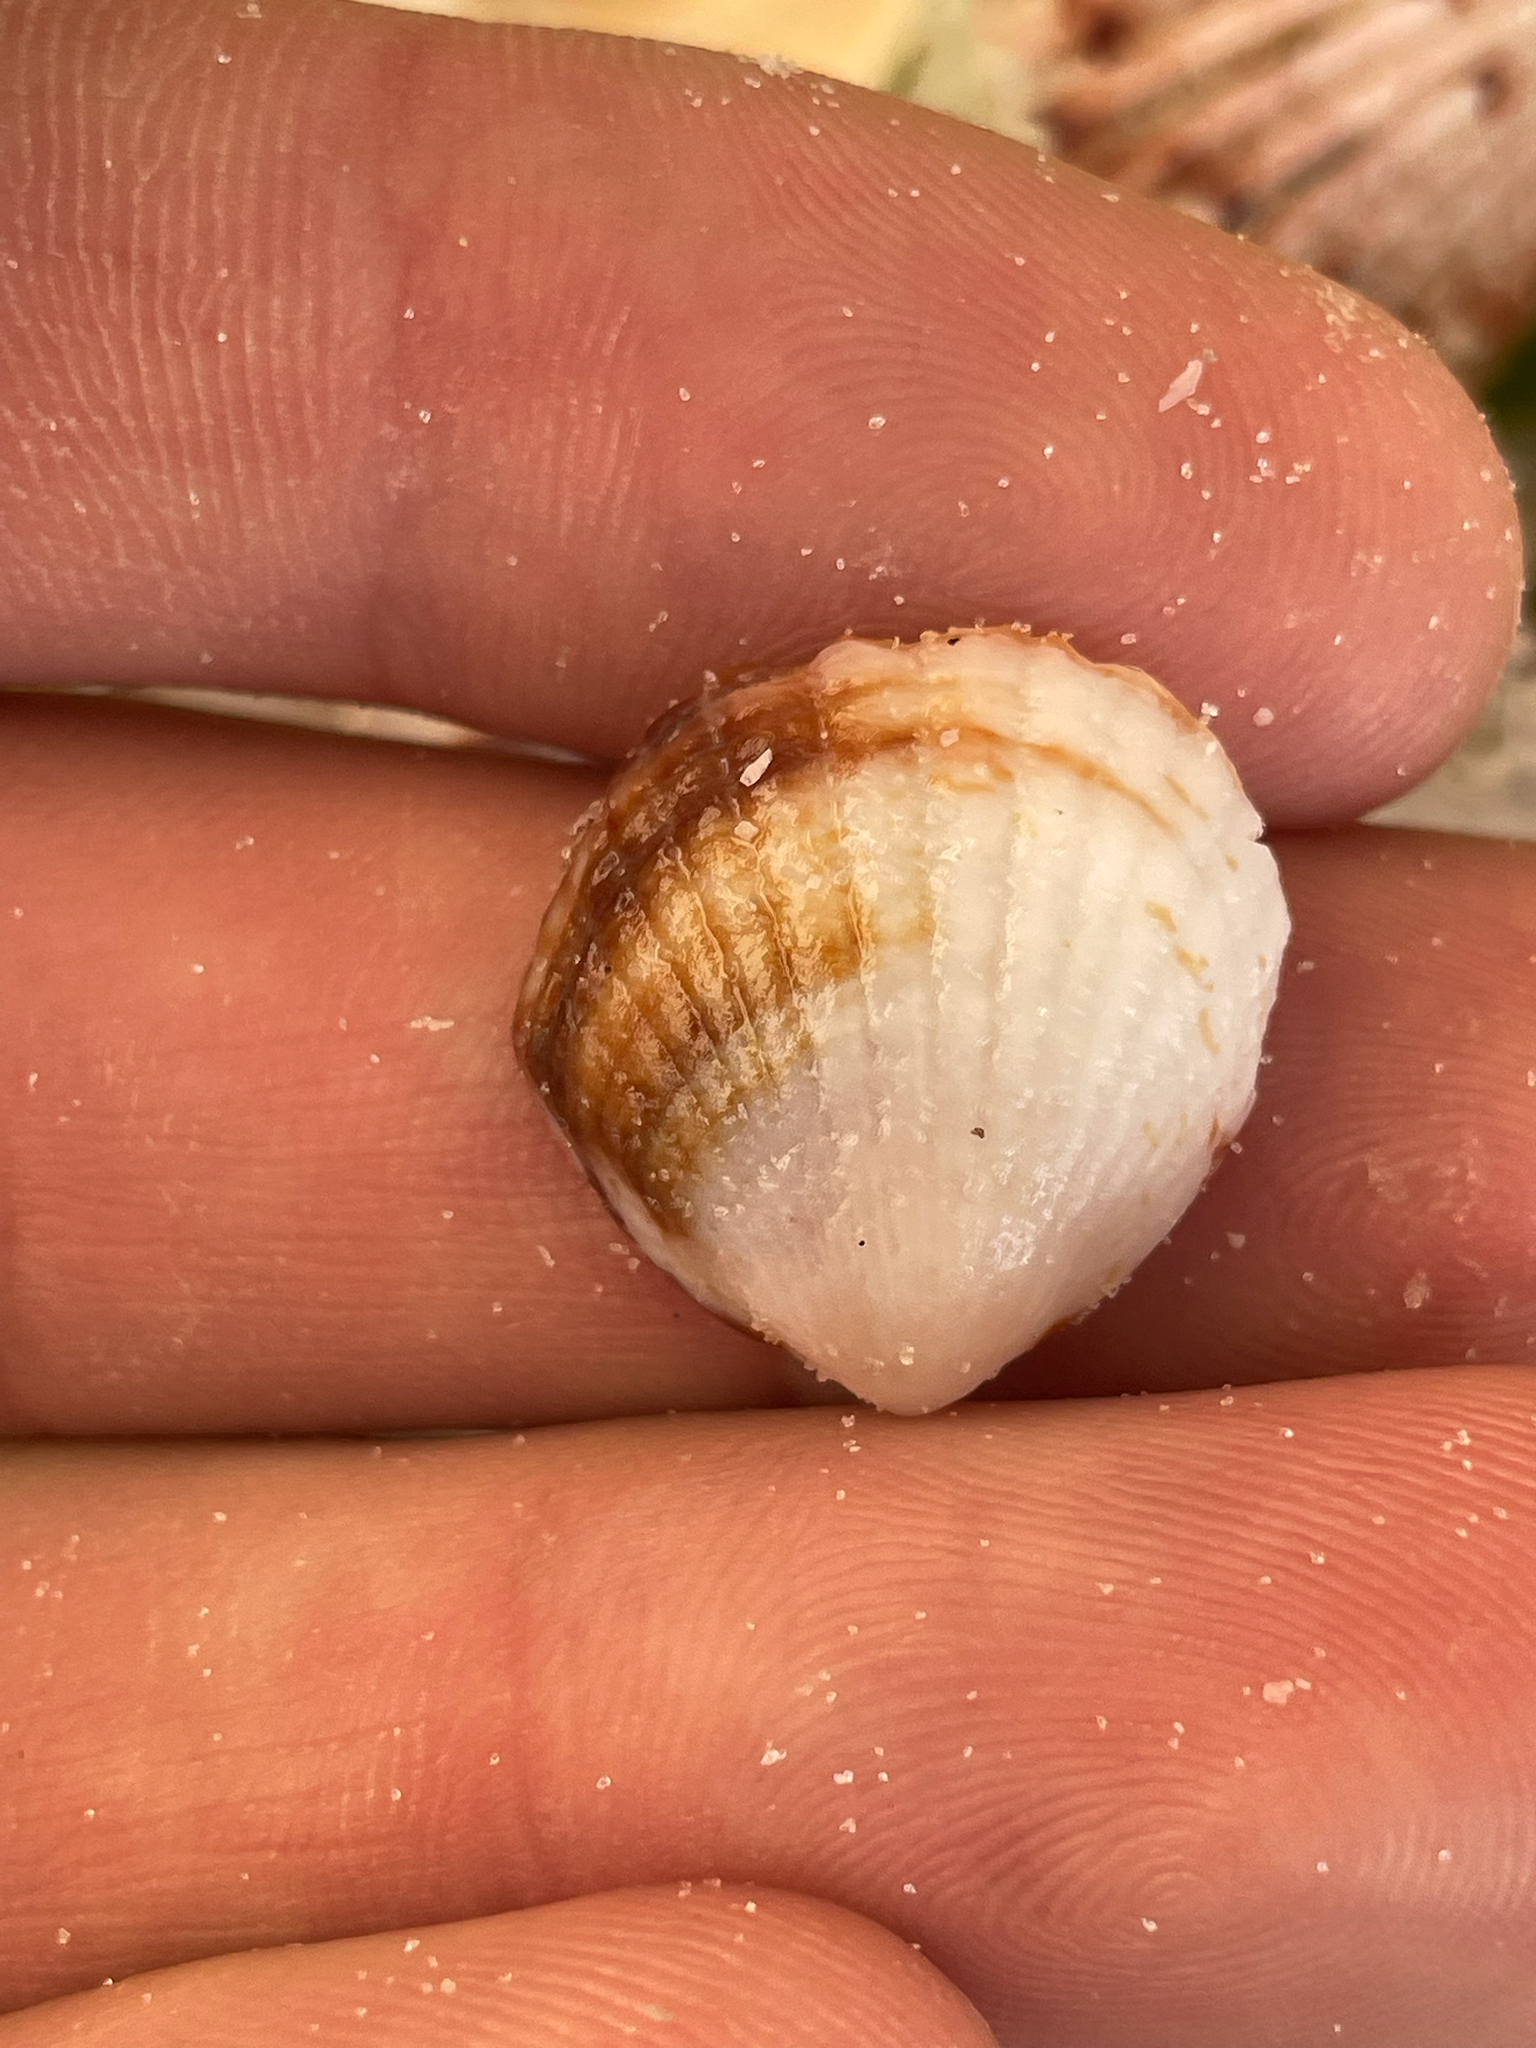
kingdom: Animalia
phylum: Mollusca
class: Bivalvia
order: Arcida
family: Glycymerididae
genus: Tucetona
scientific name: Tucetona pectinata
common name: Comb bittersweet
